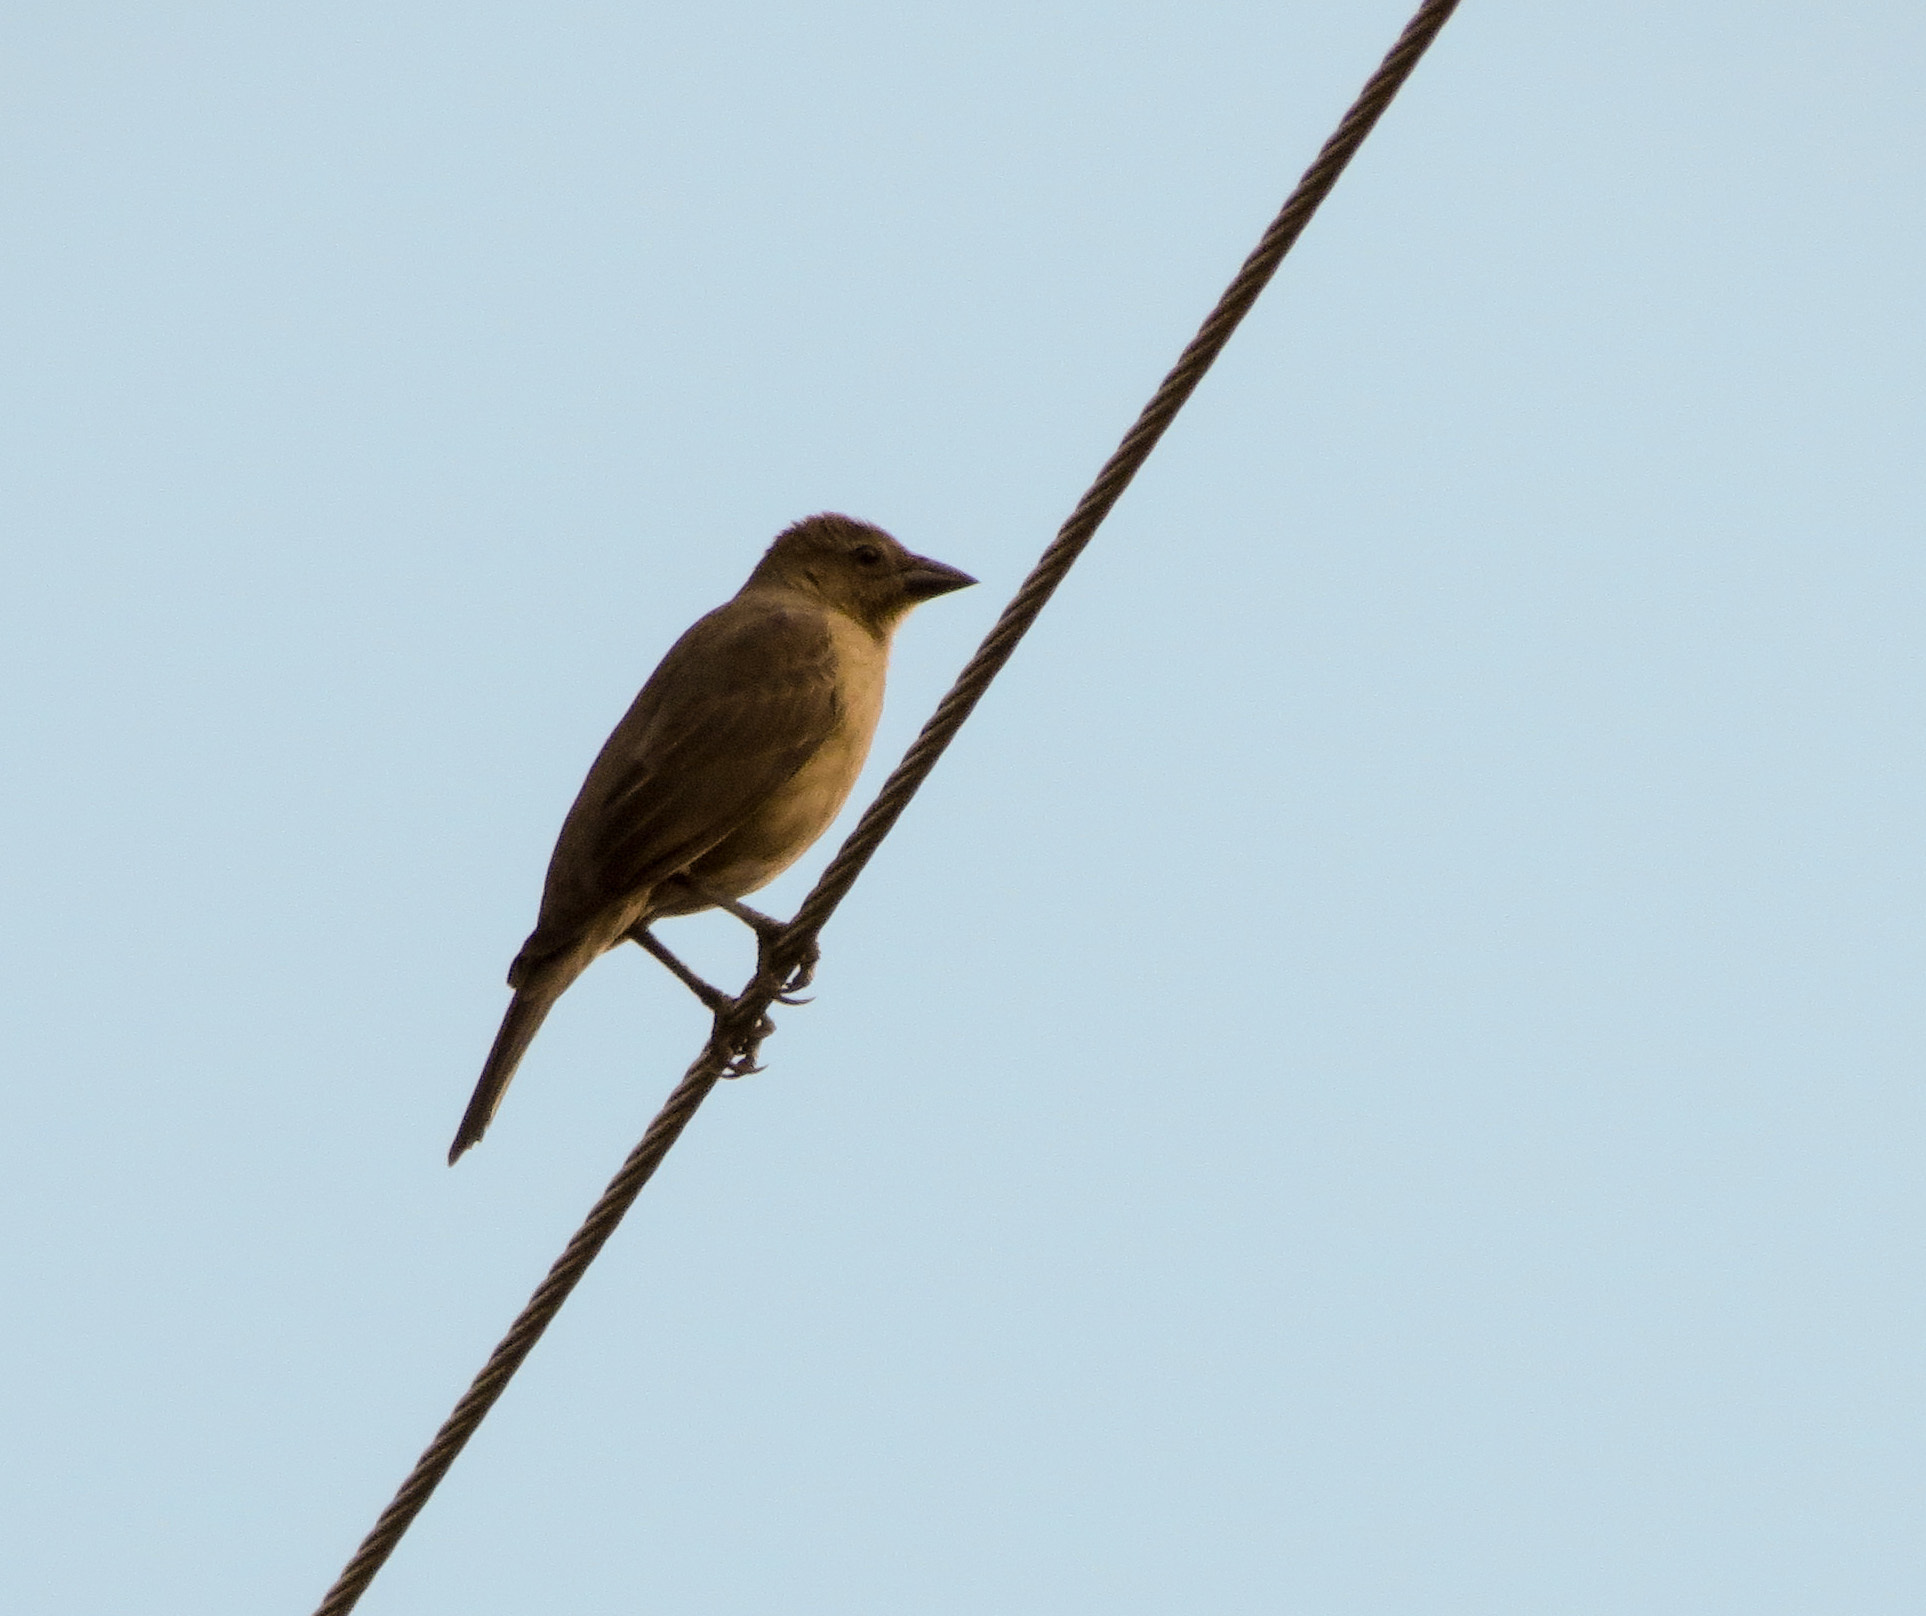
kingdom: Animalia
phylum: Chordata
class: Aves
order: Passeriformes
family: Icteridae
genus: Molothrus
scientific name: Molothrus bonariensis
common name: Shiny cowbird
